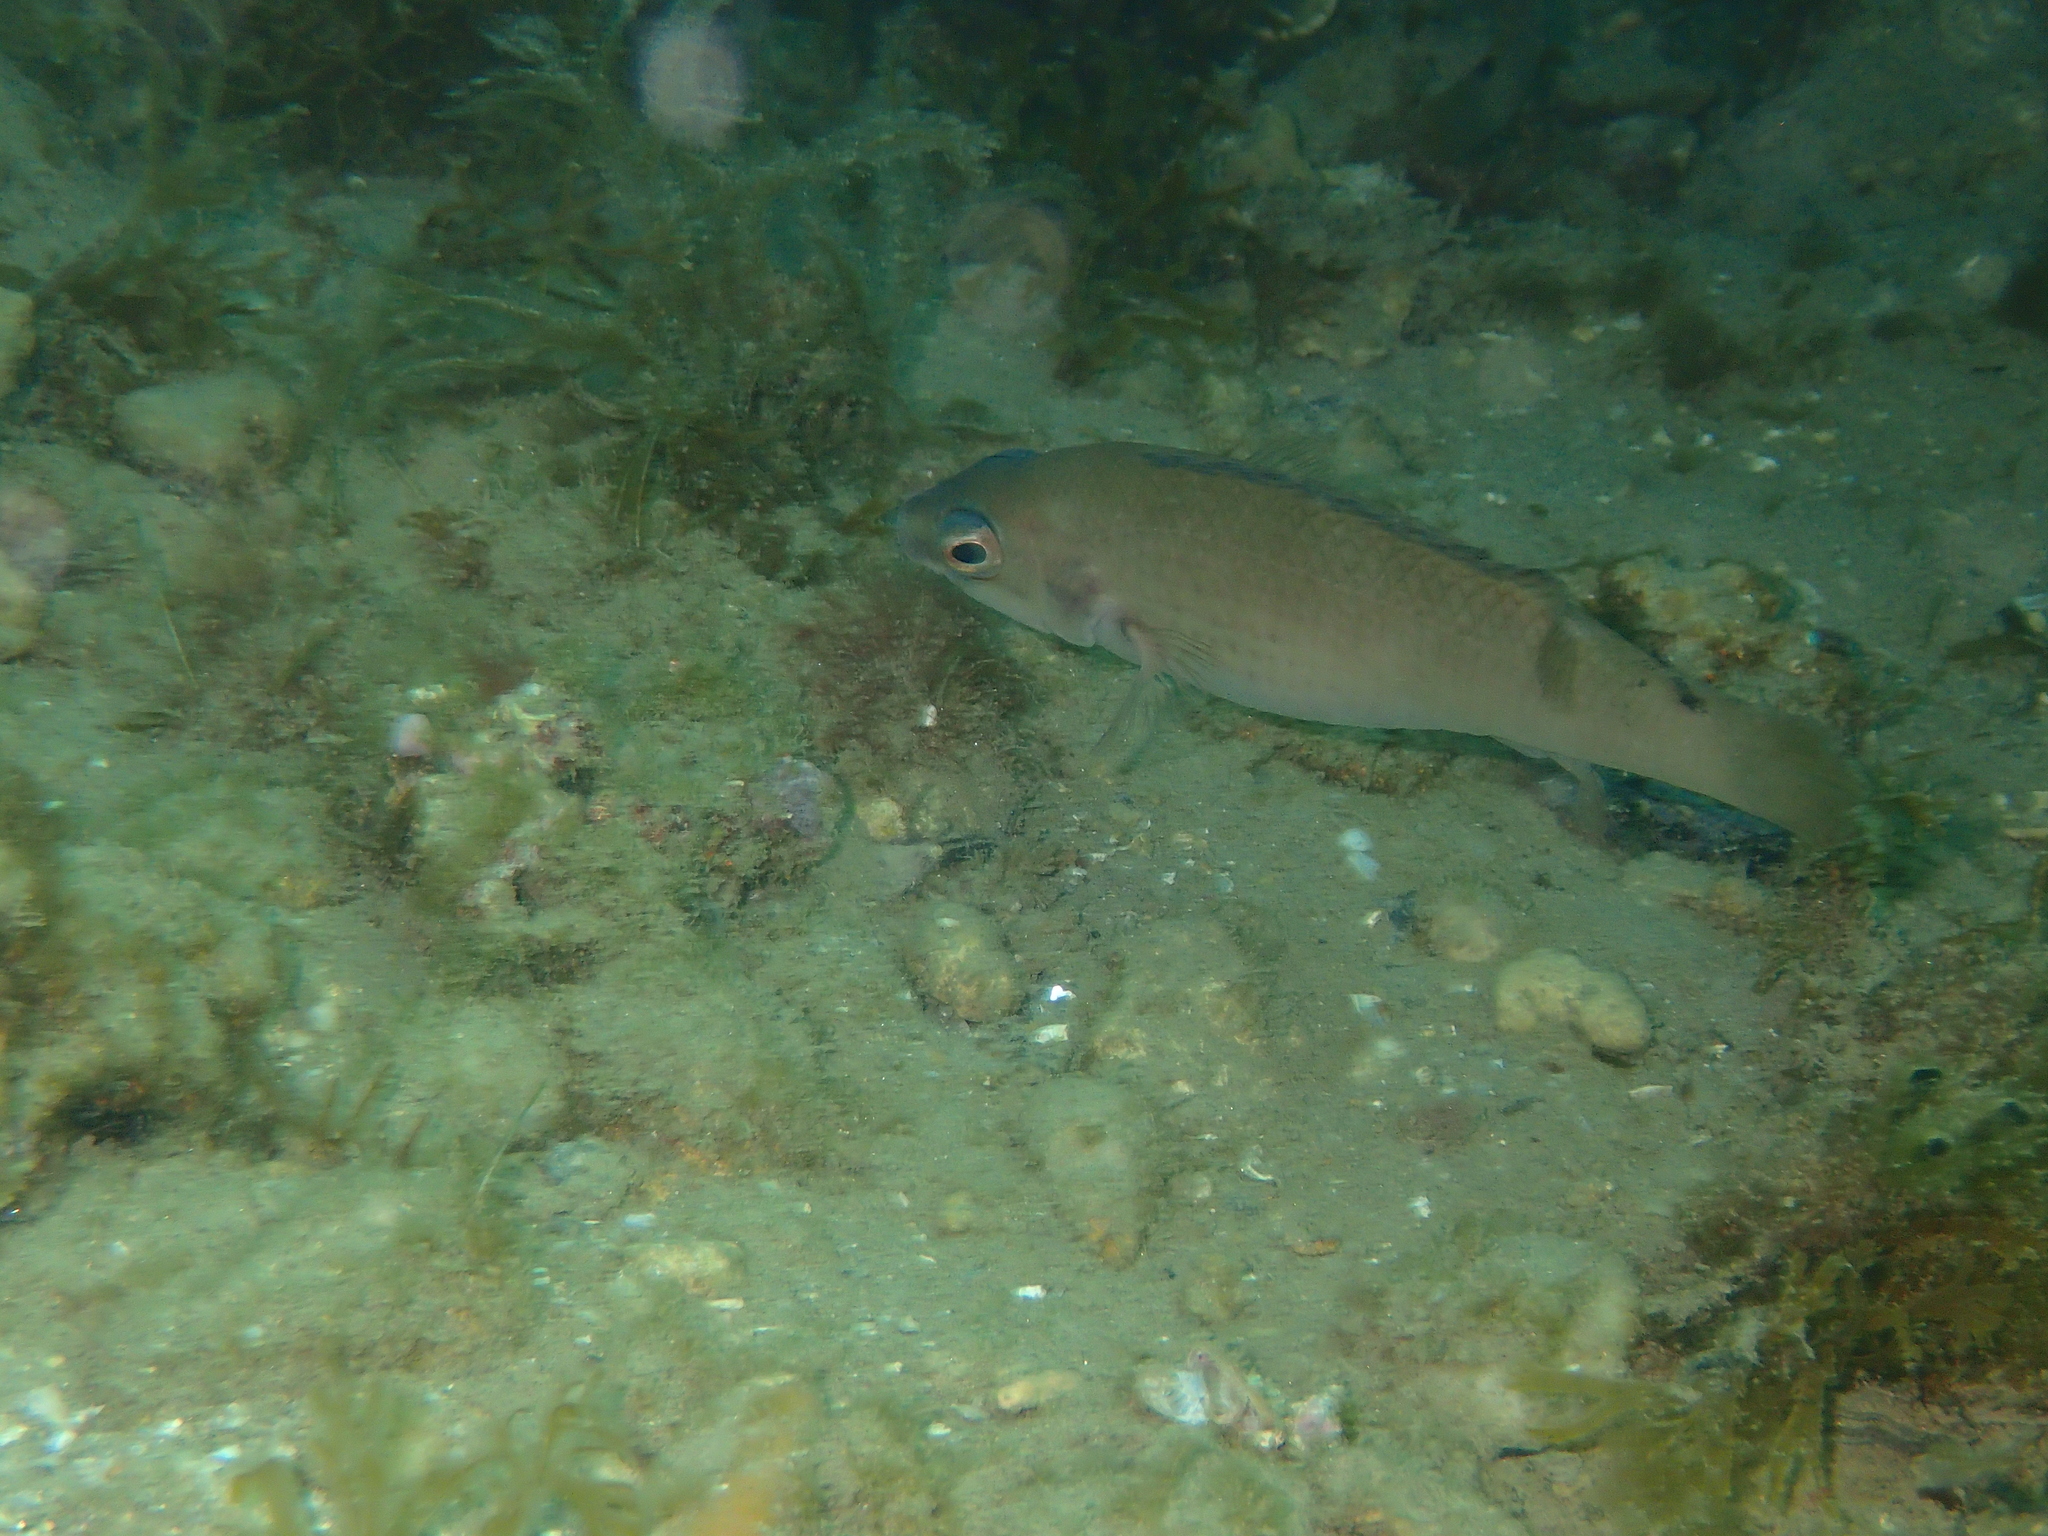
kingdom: Animalia
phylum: Chordata
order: Perciformes
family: Labridae
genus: Ctenolabrus
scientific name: Ctenolabrus rupestris
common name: Goldsinny
